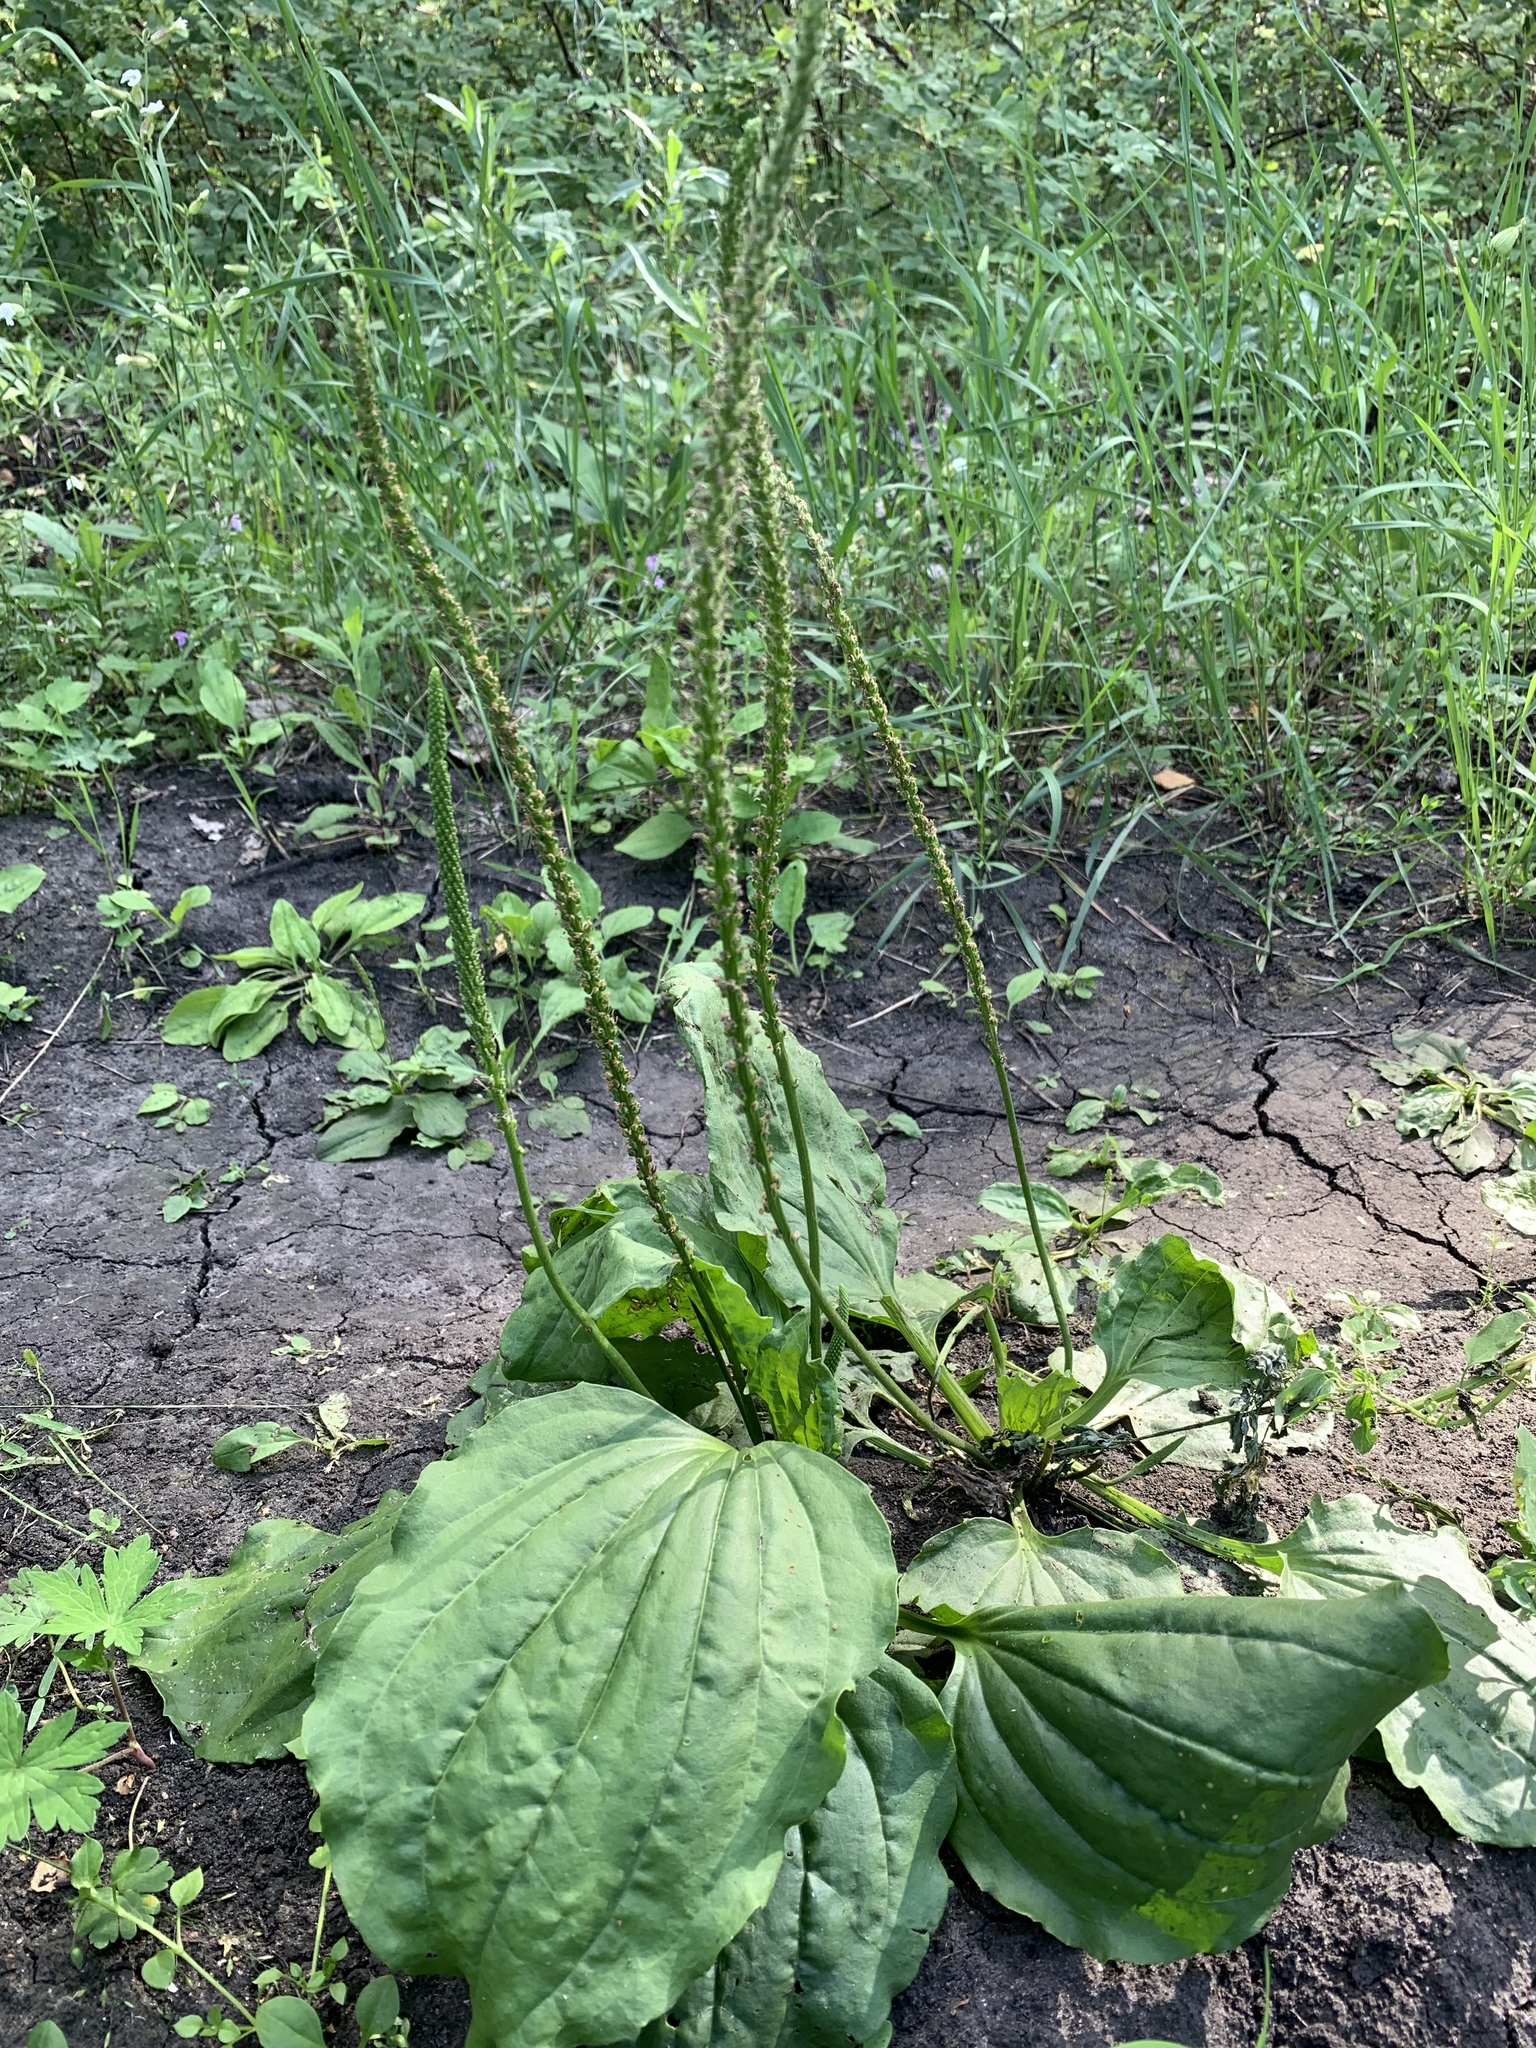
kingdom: Plantae
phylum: Tracheophyta
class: Magnoliopsida
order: Lamiales
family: Plantaginaceae
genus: Plantago
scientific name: Plantago major
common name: Common plantain
